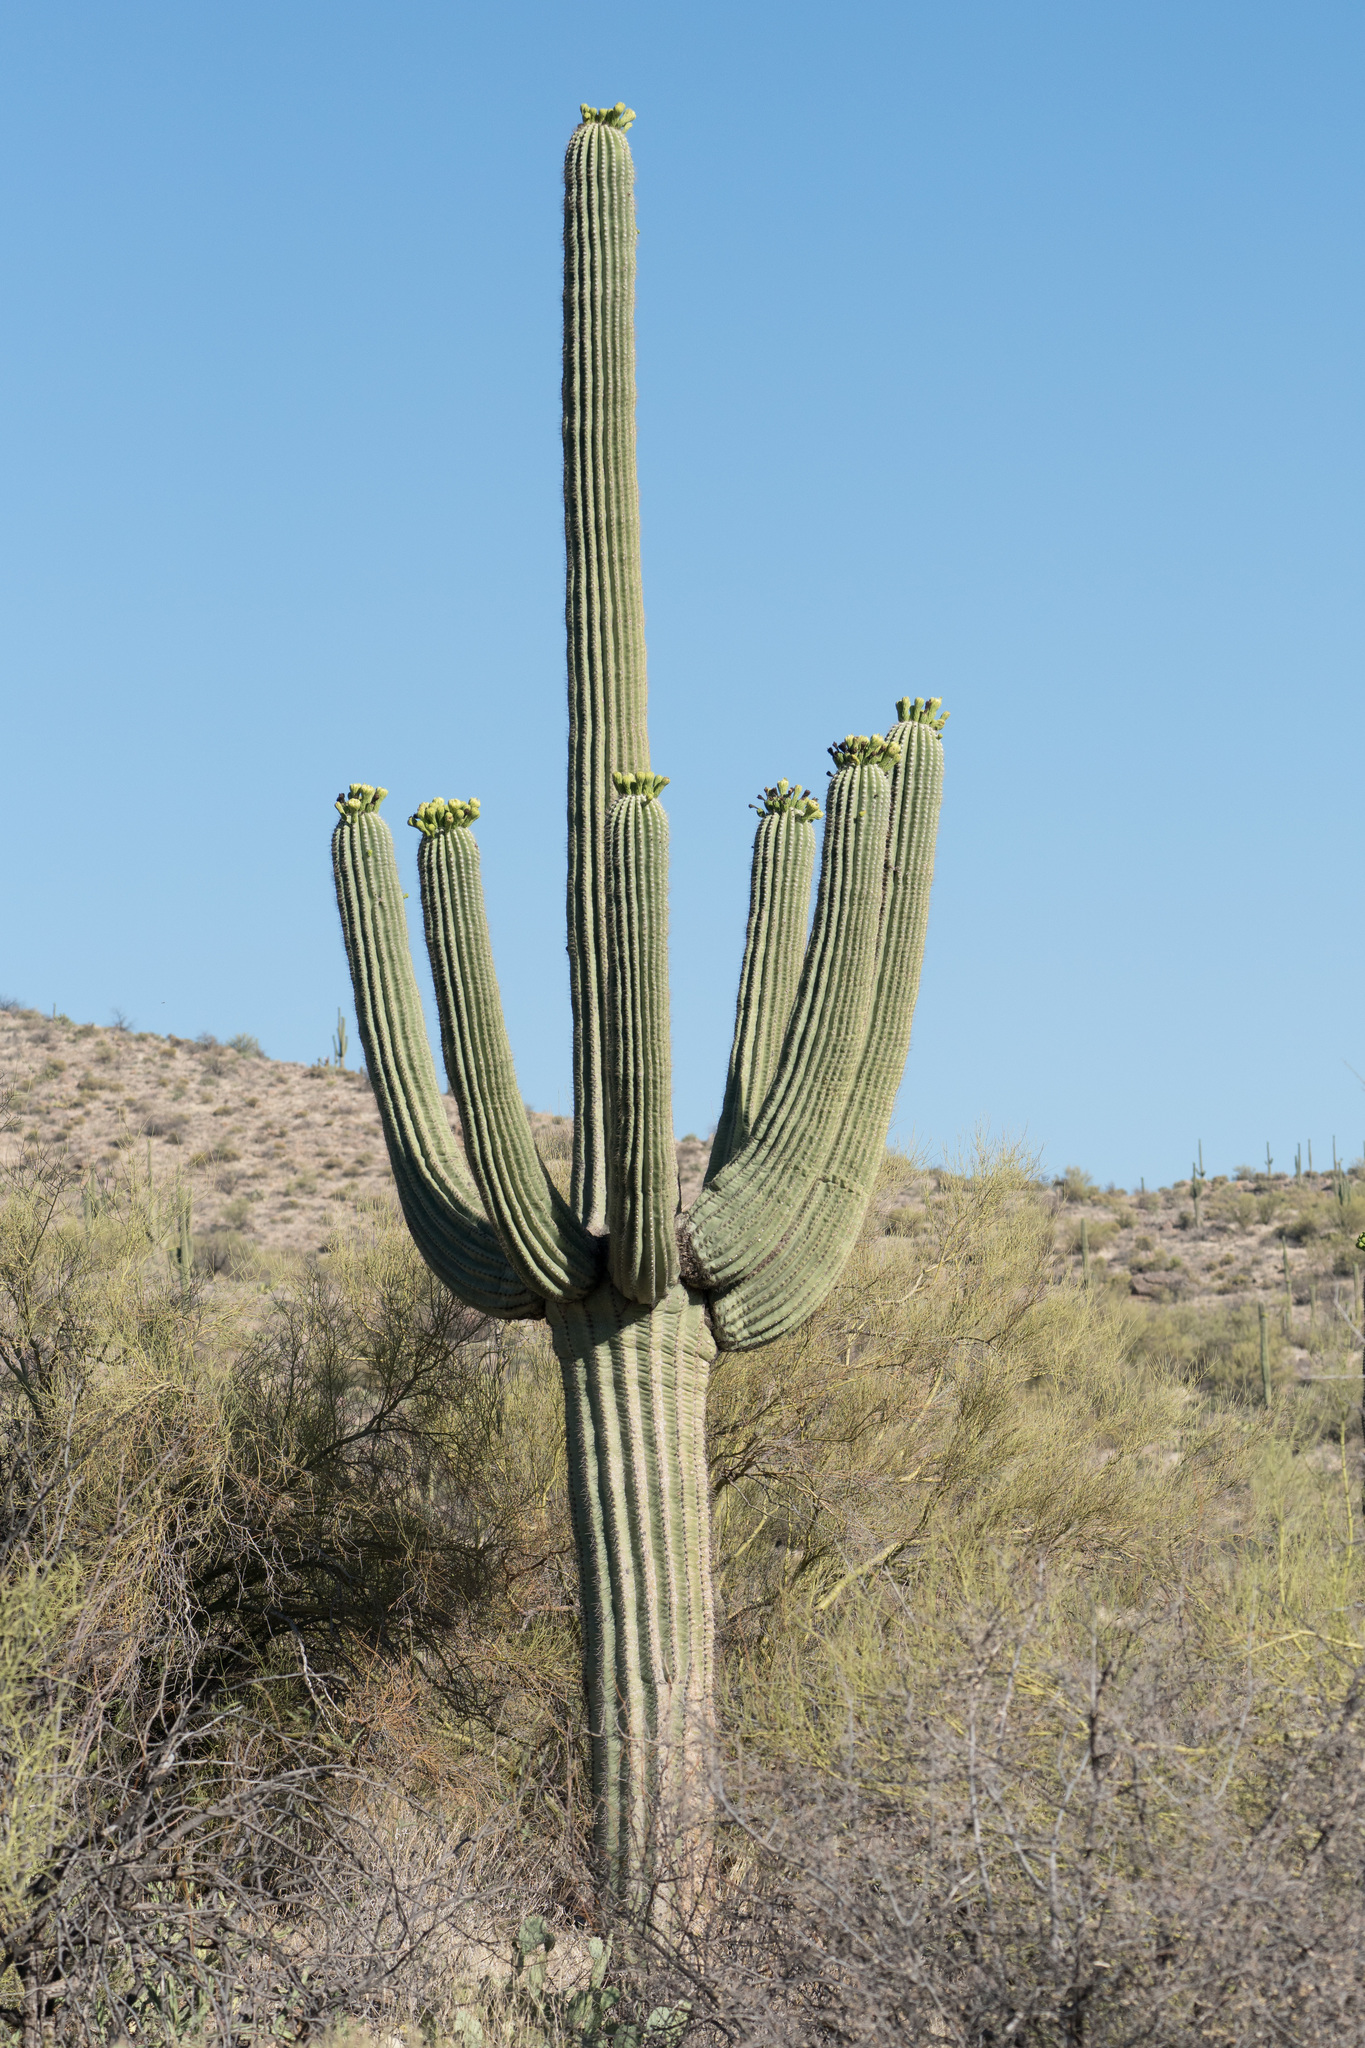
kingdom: Plantae
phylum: Tracheophyta
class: Magnoliopsida
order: Caryophyllales
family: Cactaceae
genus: Carnegiea
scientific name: Carnegiea gigantea
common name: Saguaro
